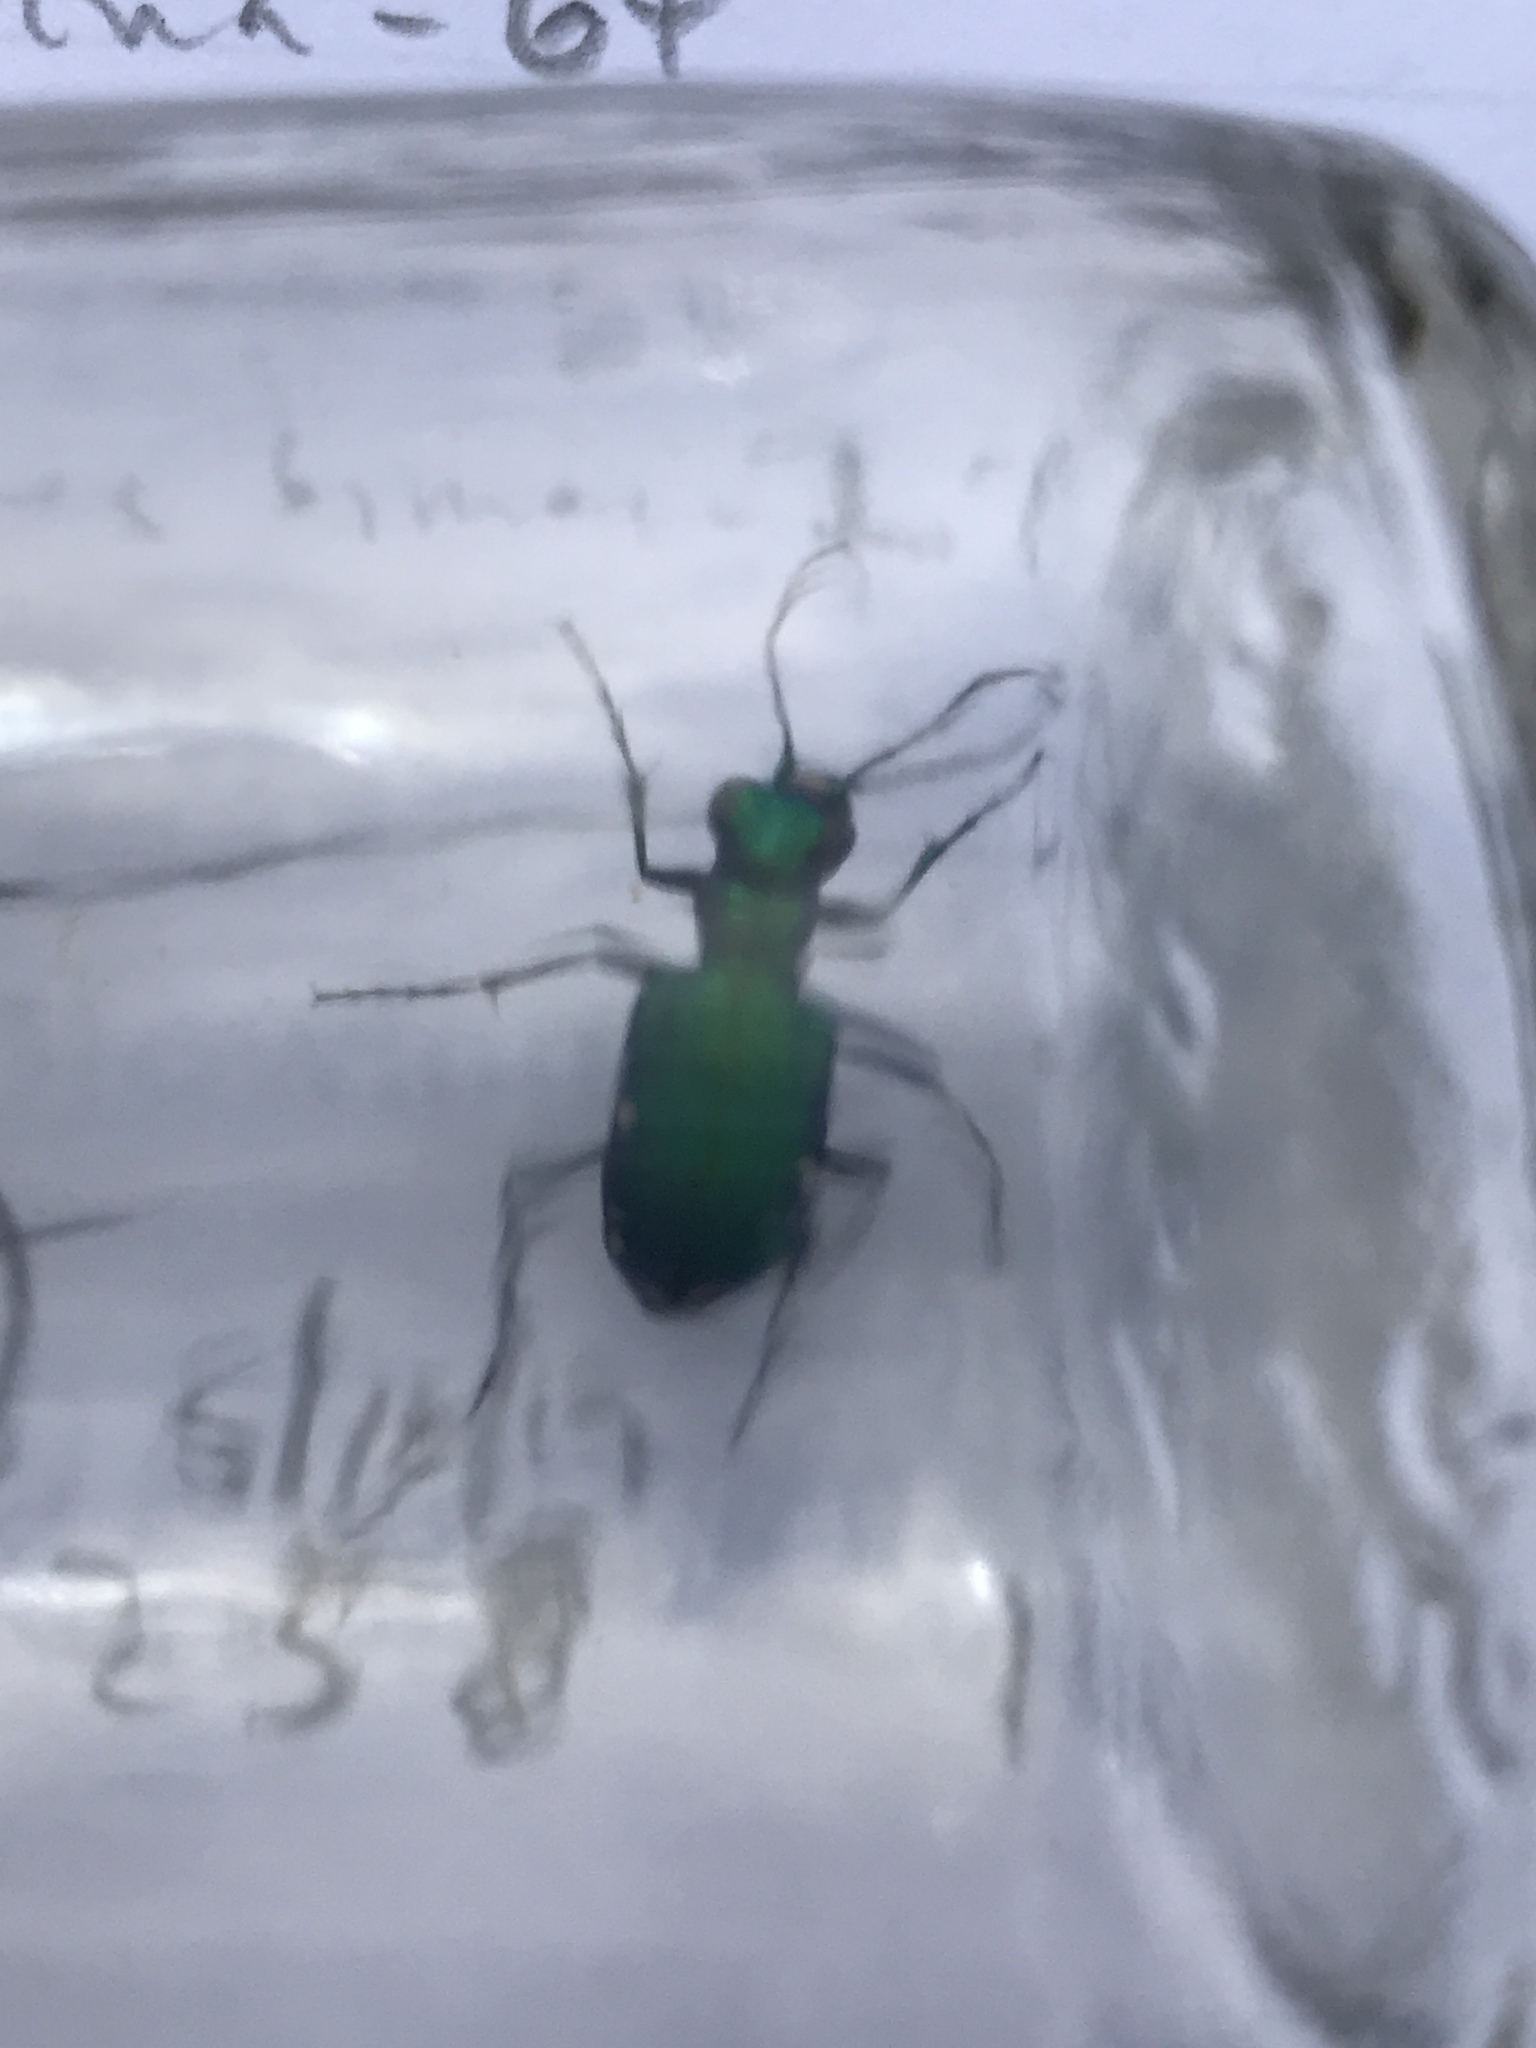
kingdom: Animalia
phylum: Arthropoda
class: Insecta
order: Coleoptera
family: Carabidae
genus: Cicindela
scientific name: Cicindela sexguttata
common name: Six-spotted tiger beetle
